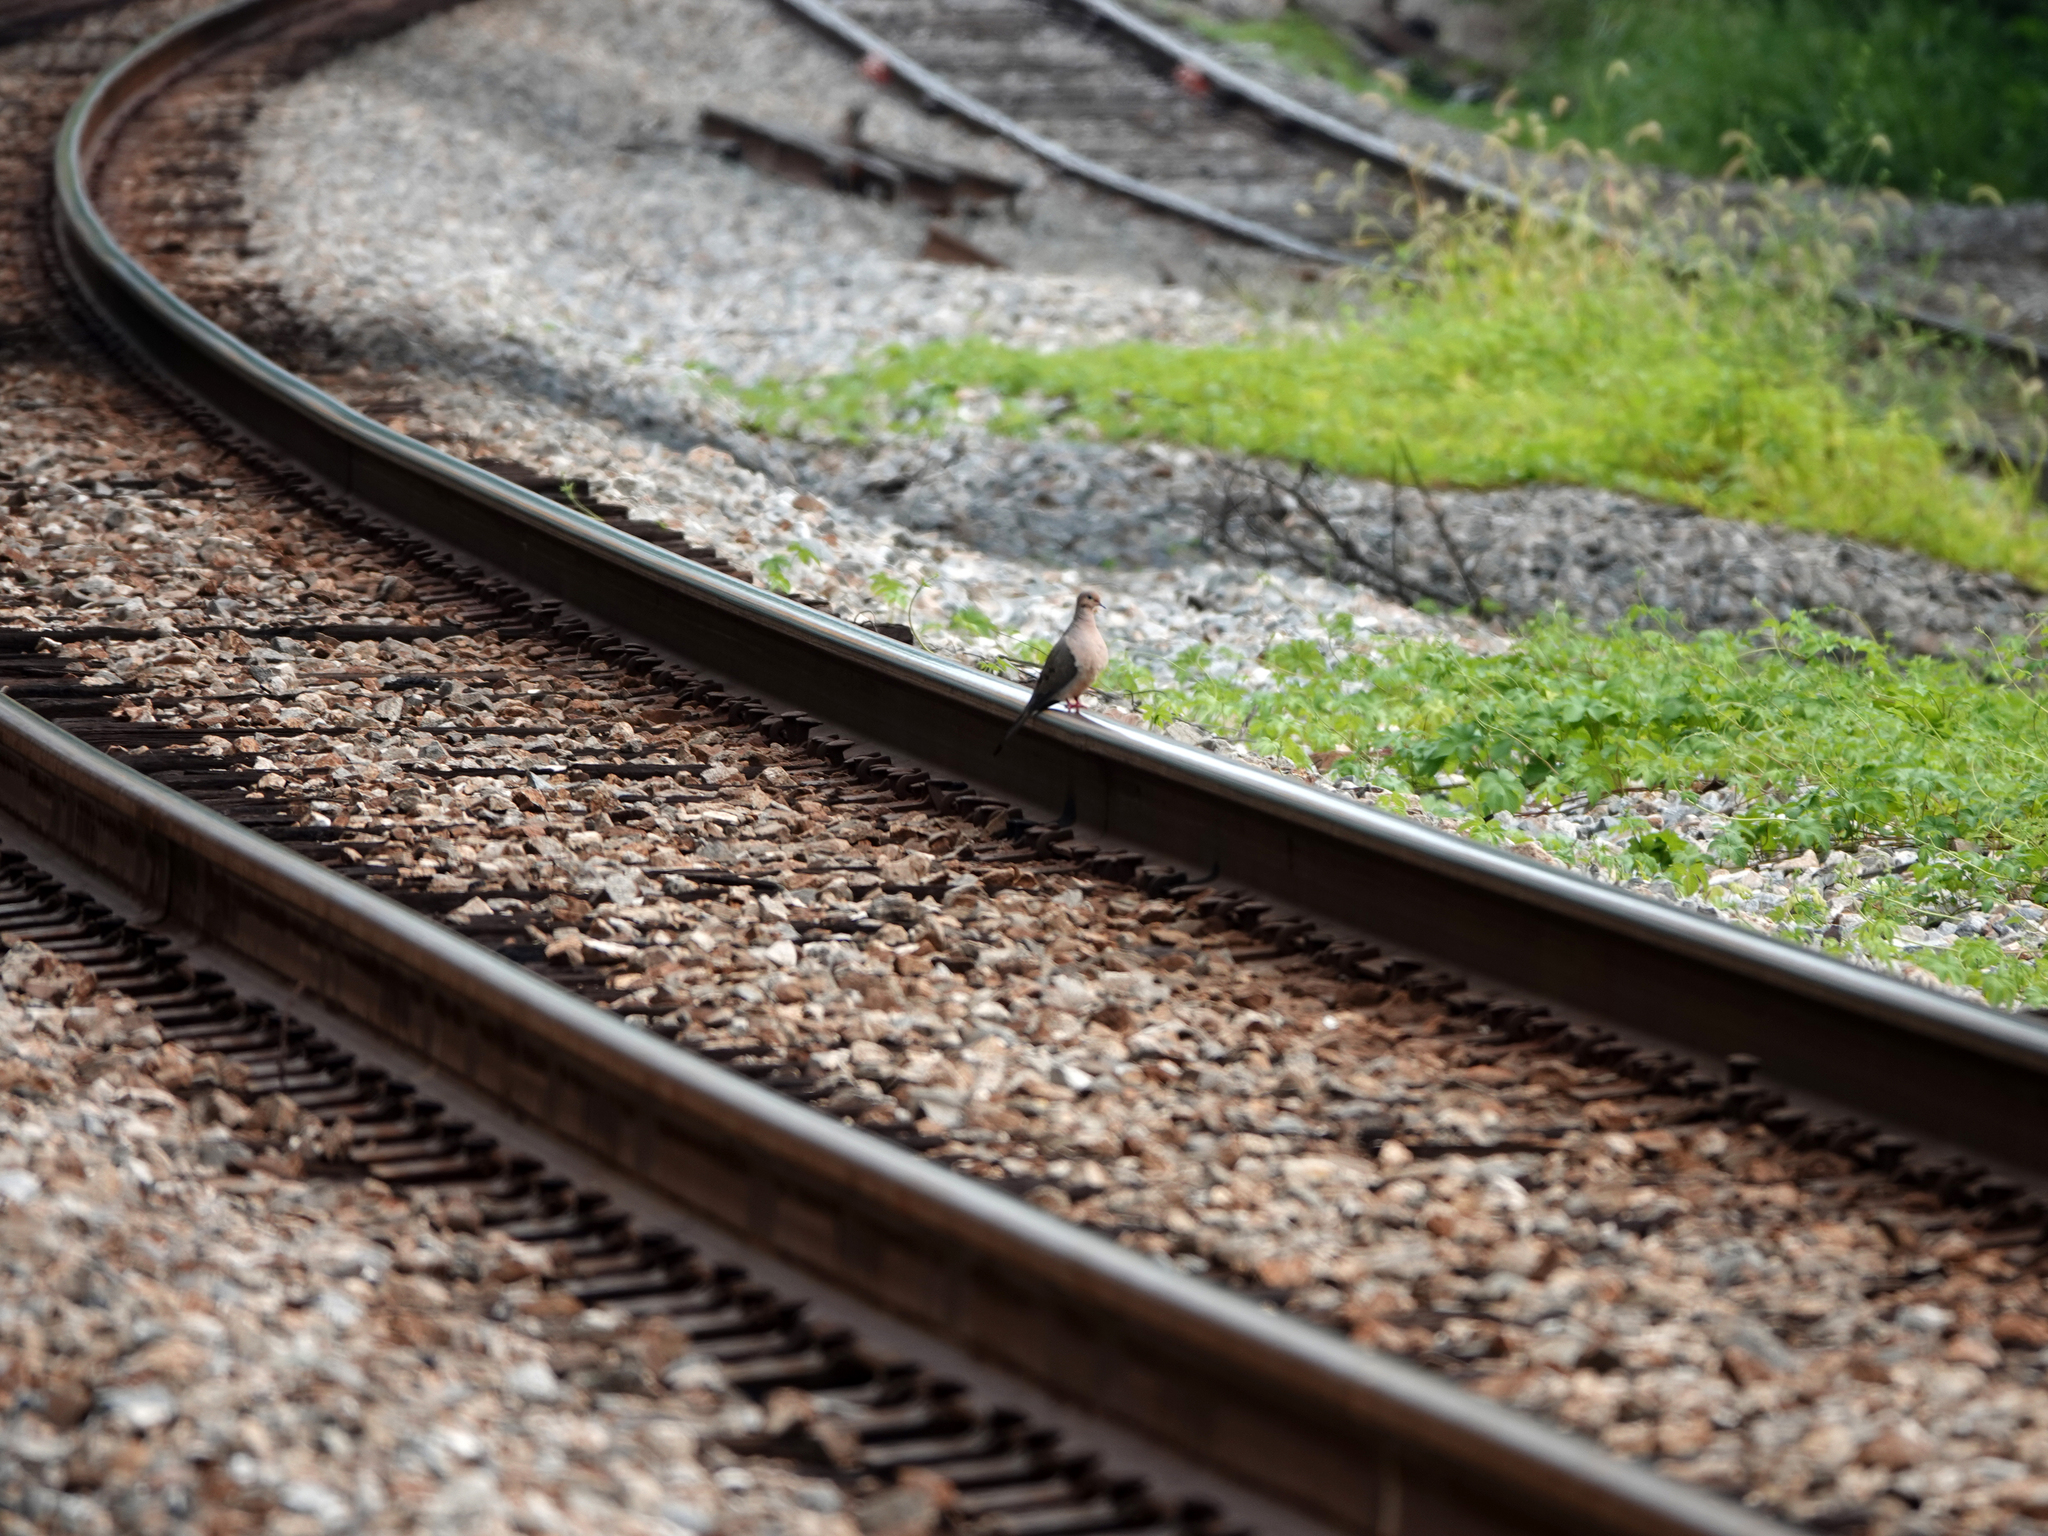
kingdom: Animalia
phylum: Chordata
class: Aves
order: Columbiformes
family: Columbidae
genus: Zenaida
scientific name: Zenaida macroura
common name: Mourning dove
